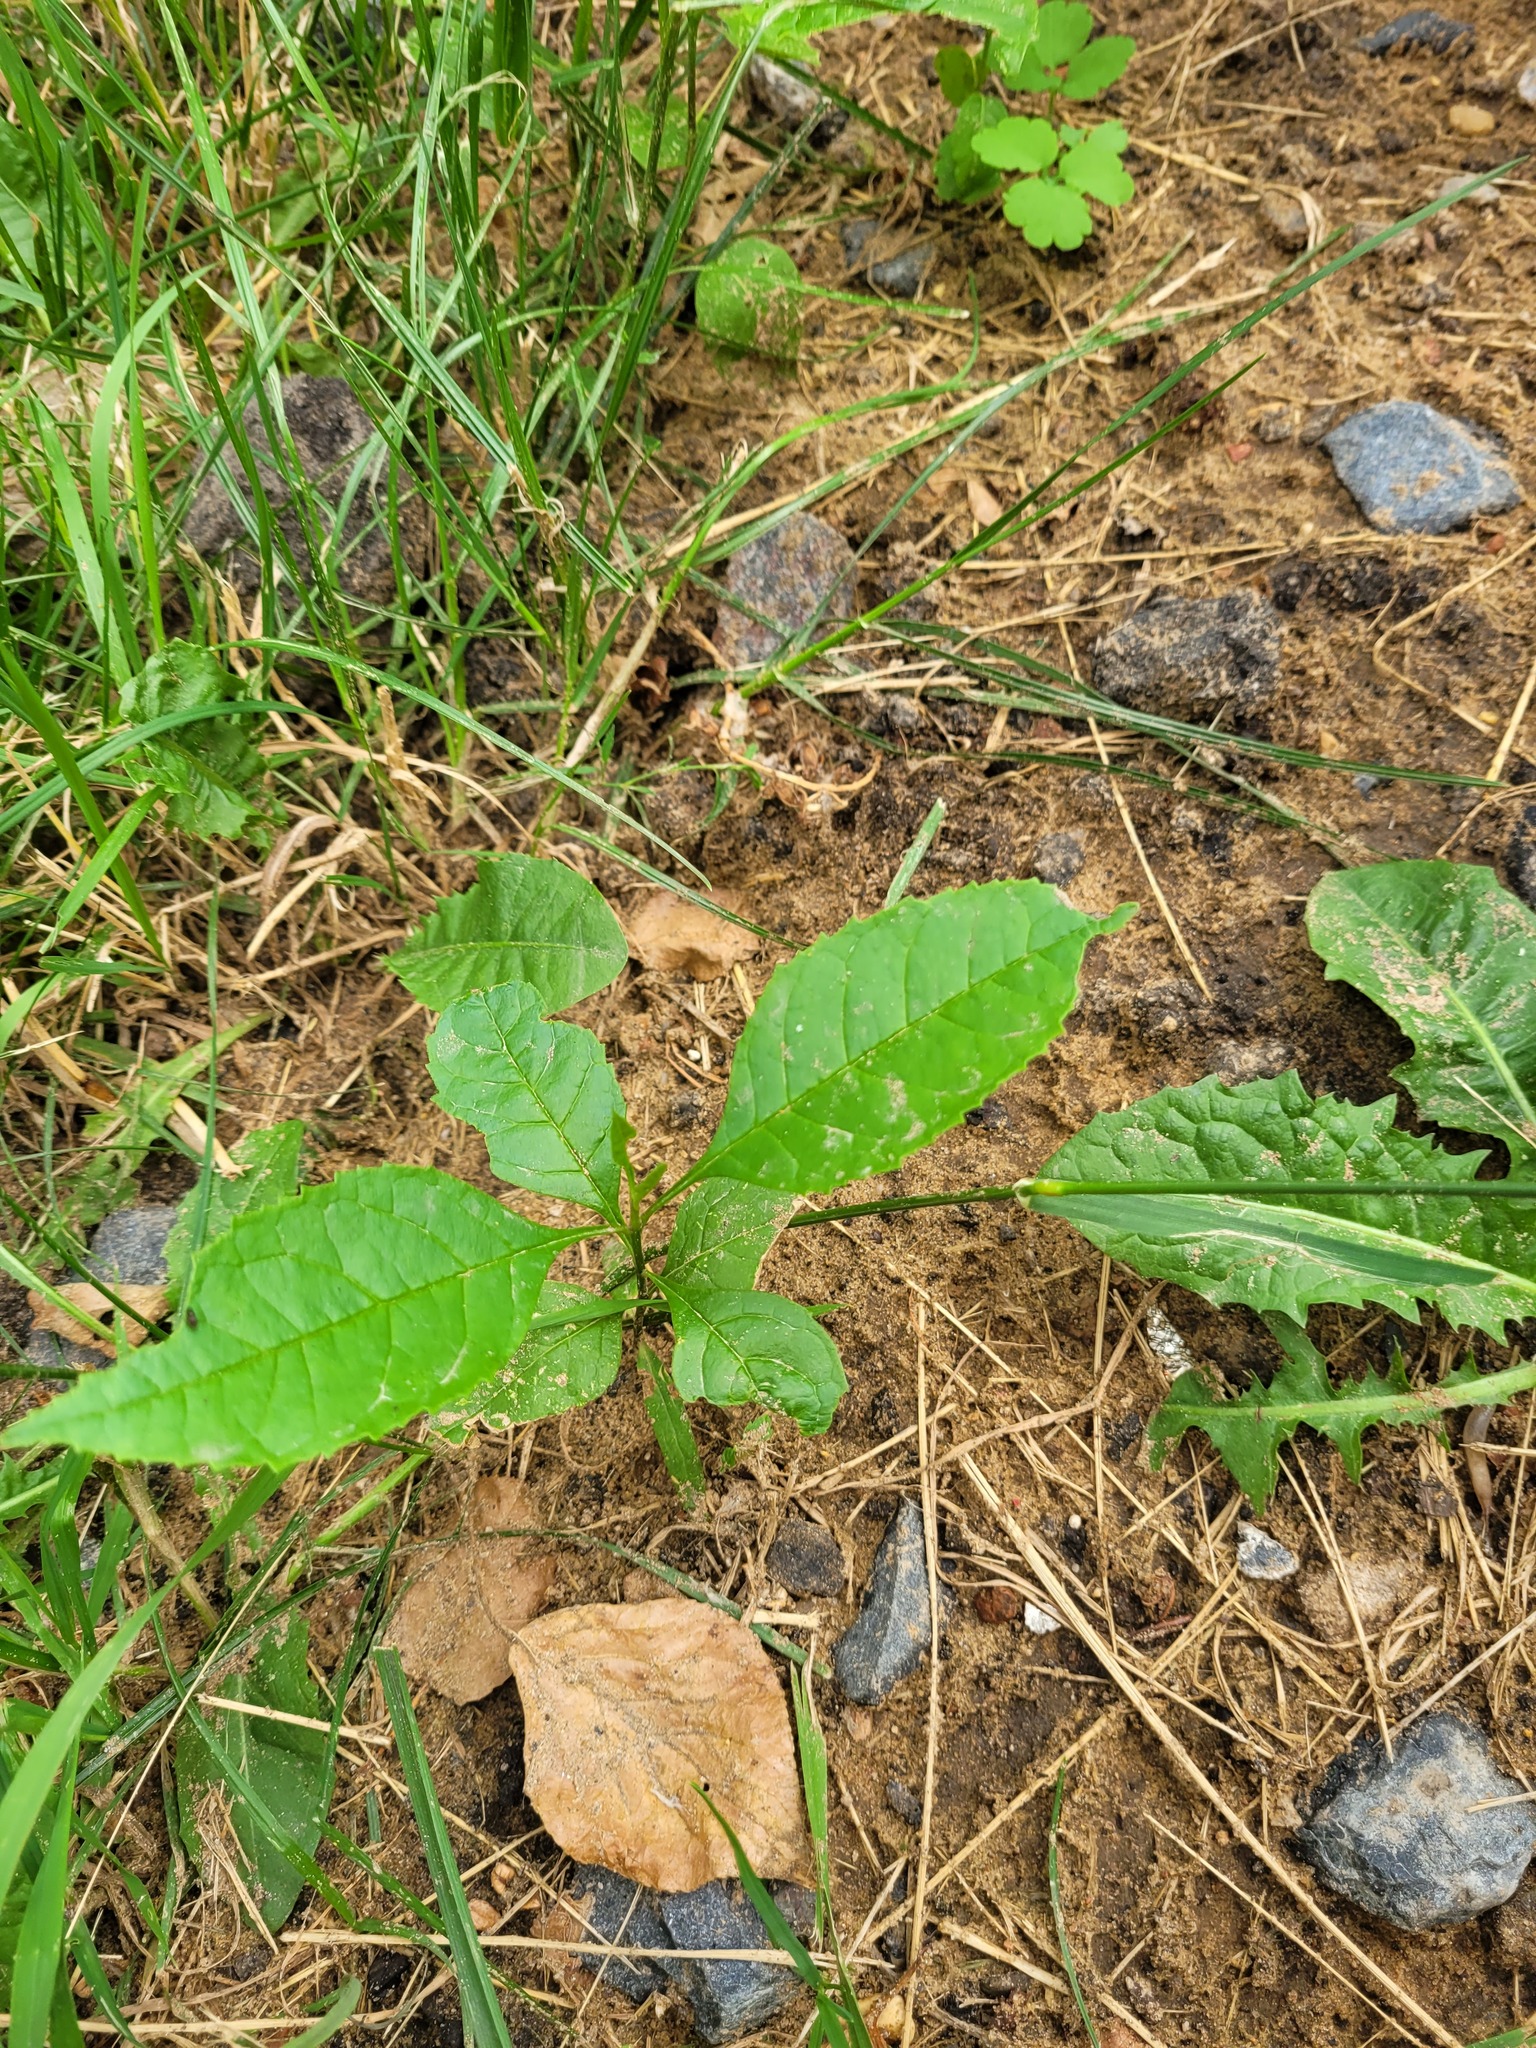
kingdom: Plantae
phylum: Tracheophyta
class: Magnoliopsida
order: Lamiales
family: Oleaceae
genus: Fraxinus
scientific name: Fraxinus pennsylvanica
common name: Green ash
